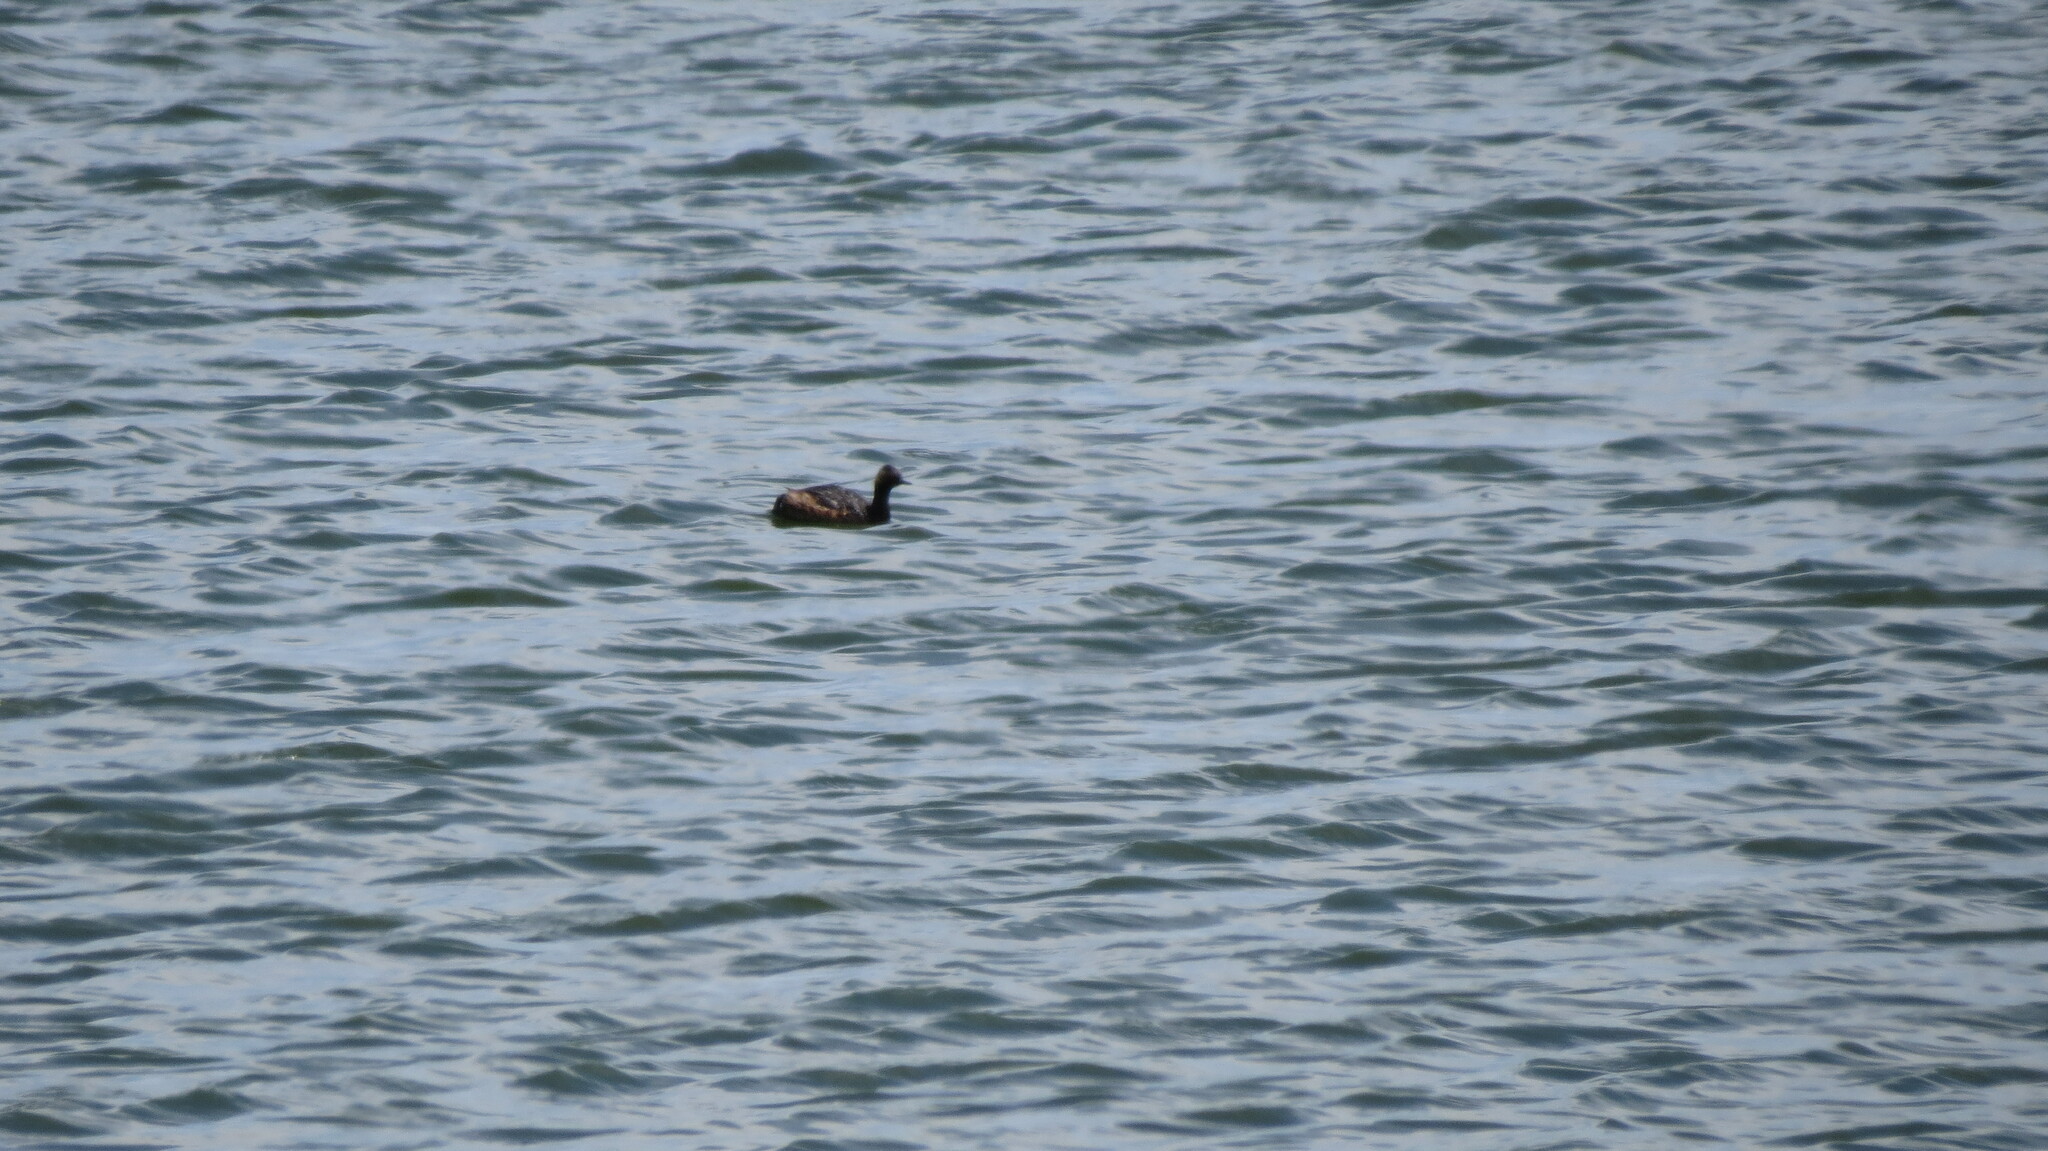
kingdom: Animalia
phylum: Chordata
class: Aves
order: Podicipediformes
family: Podicipedidae
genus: Podiceps
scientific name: Podiceps nigricollis
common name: Black-necked grebe
